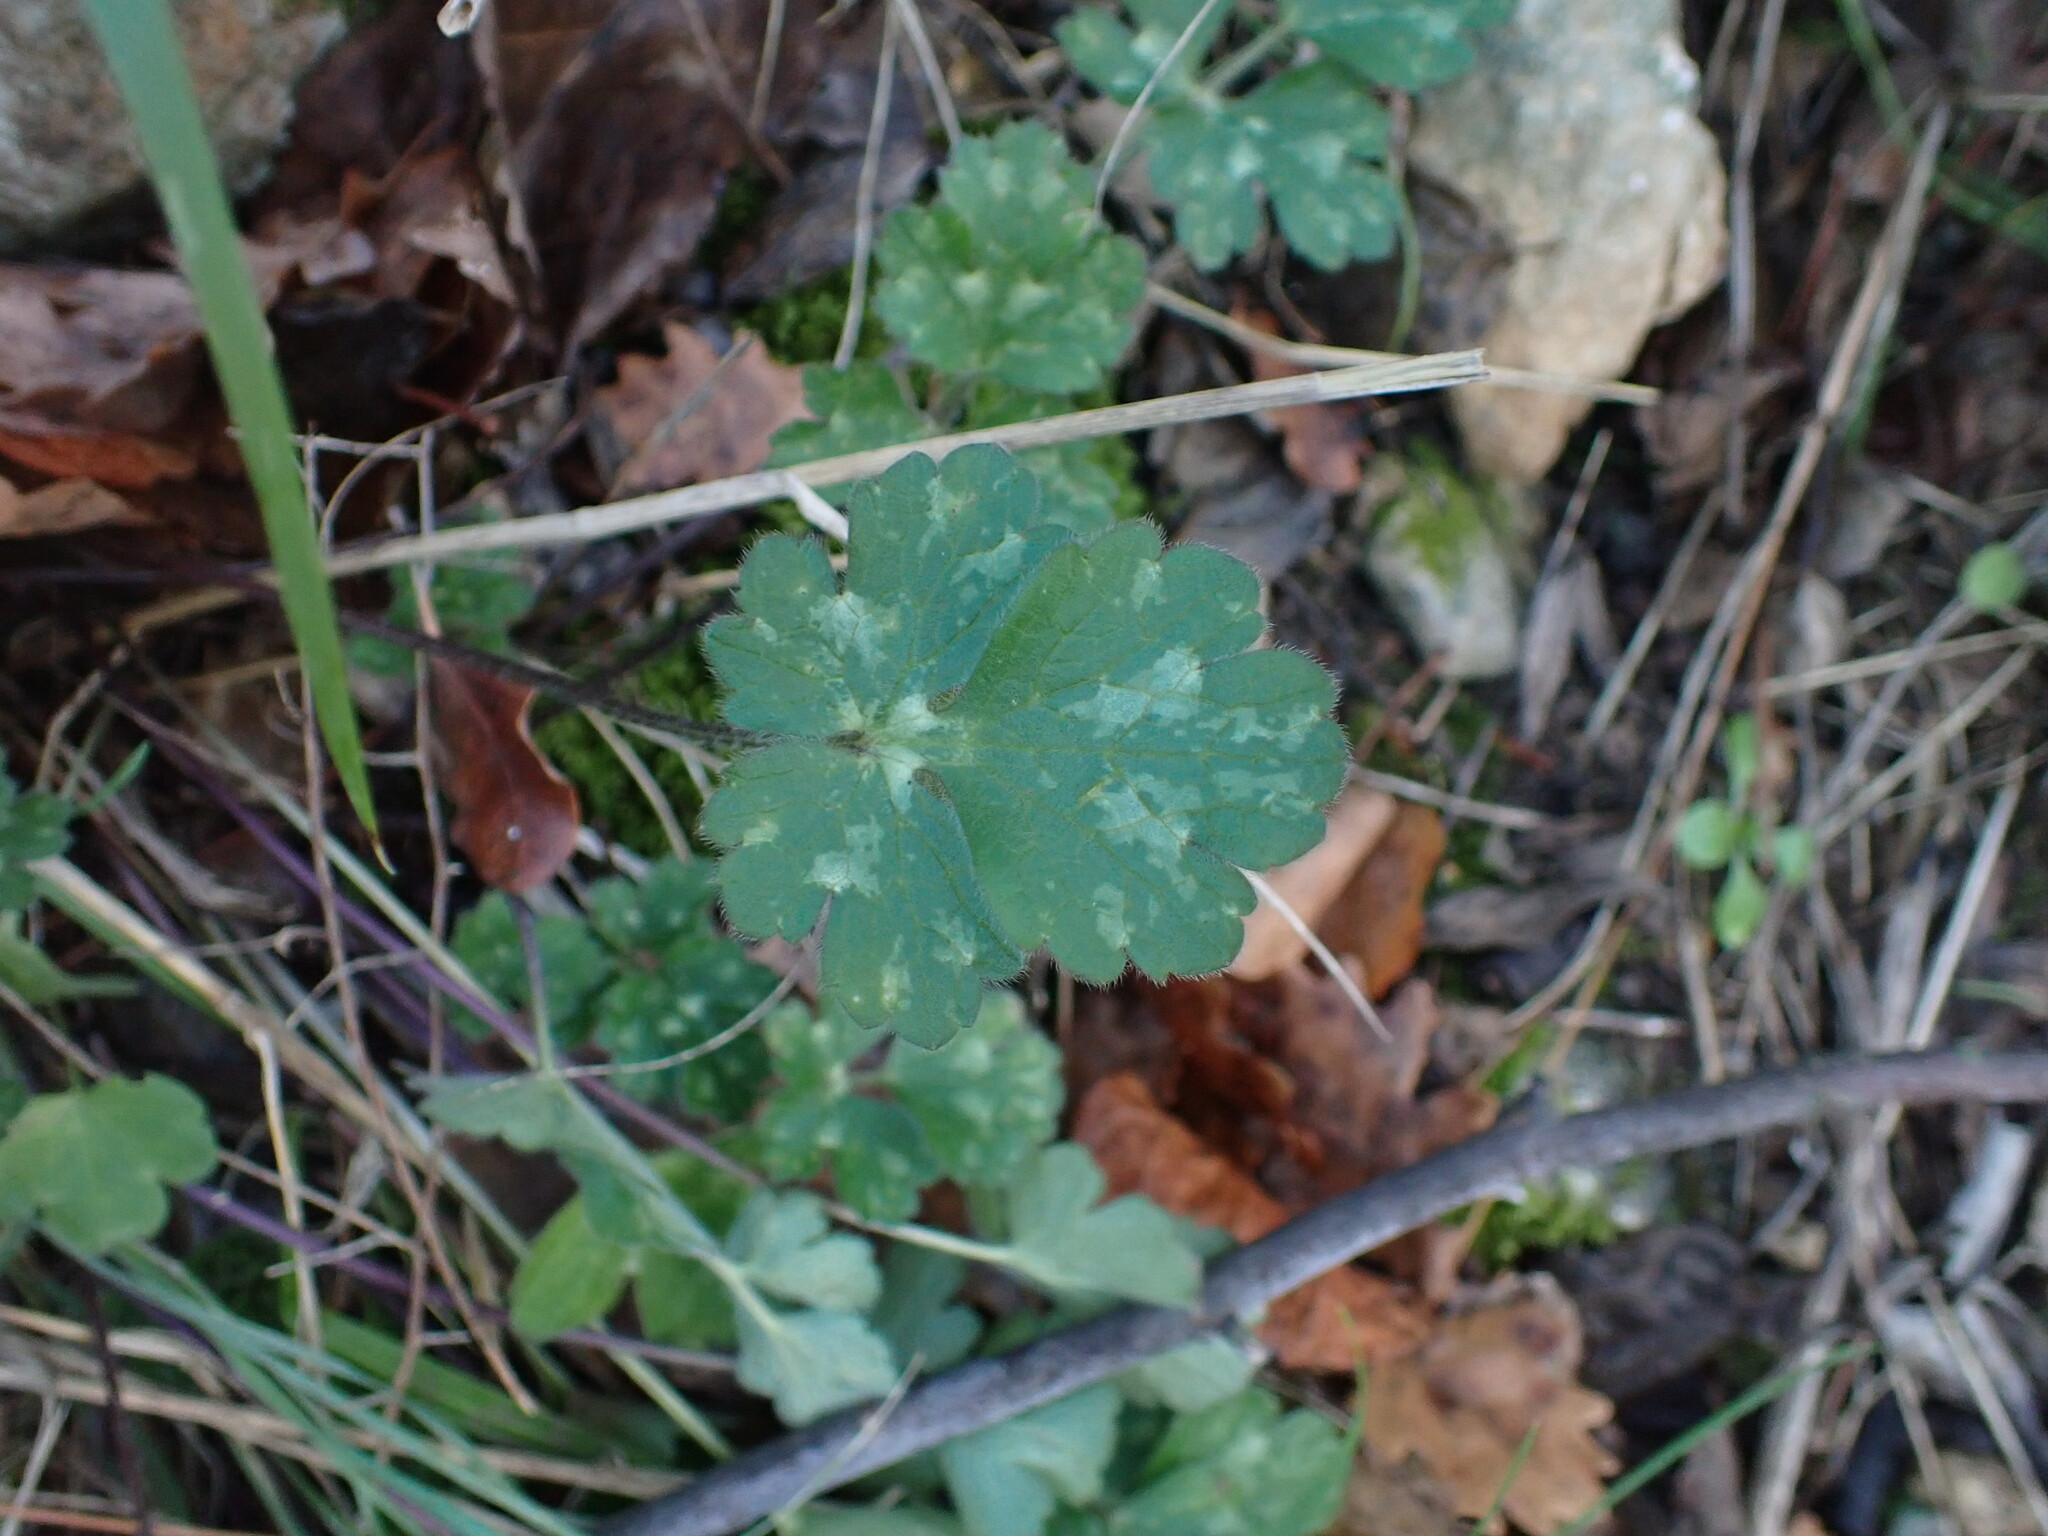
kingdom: Plantae
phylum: Tracheophyta
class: Magnoliopsida
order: Ranunculales
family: Ranunculaceae
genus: Ranunculus
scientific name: Ranunculus bulbosus
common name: Bulbous buttercup
